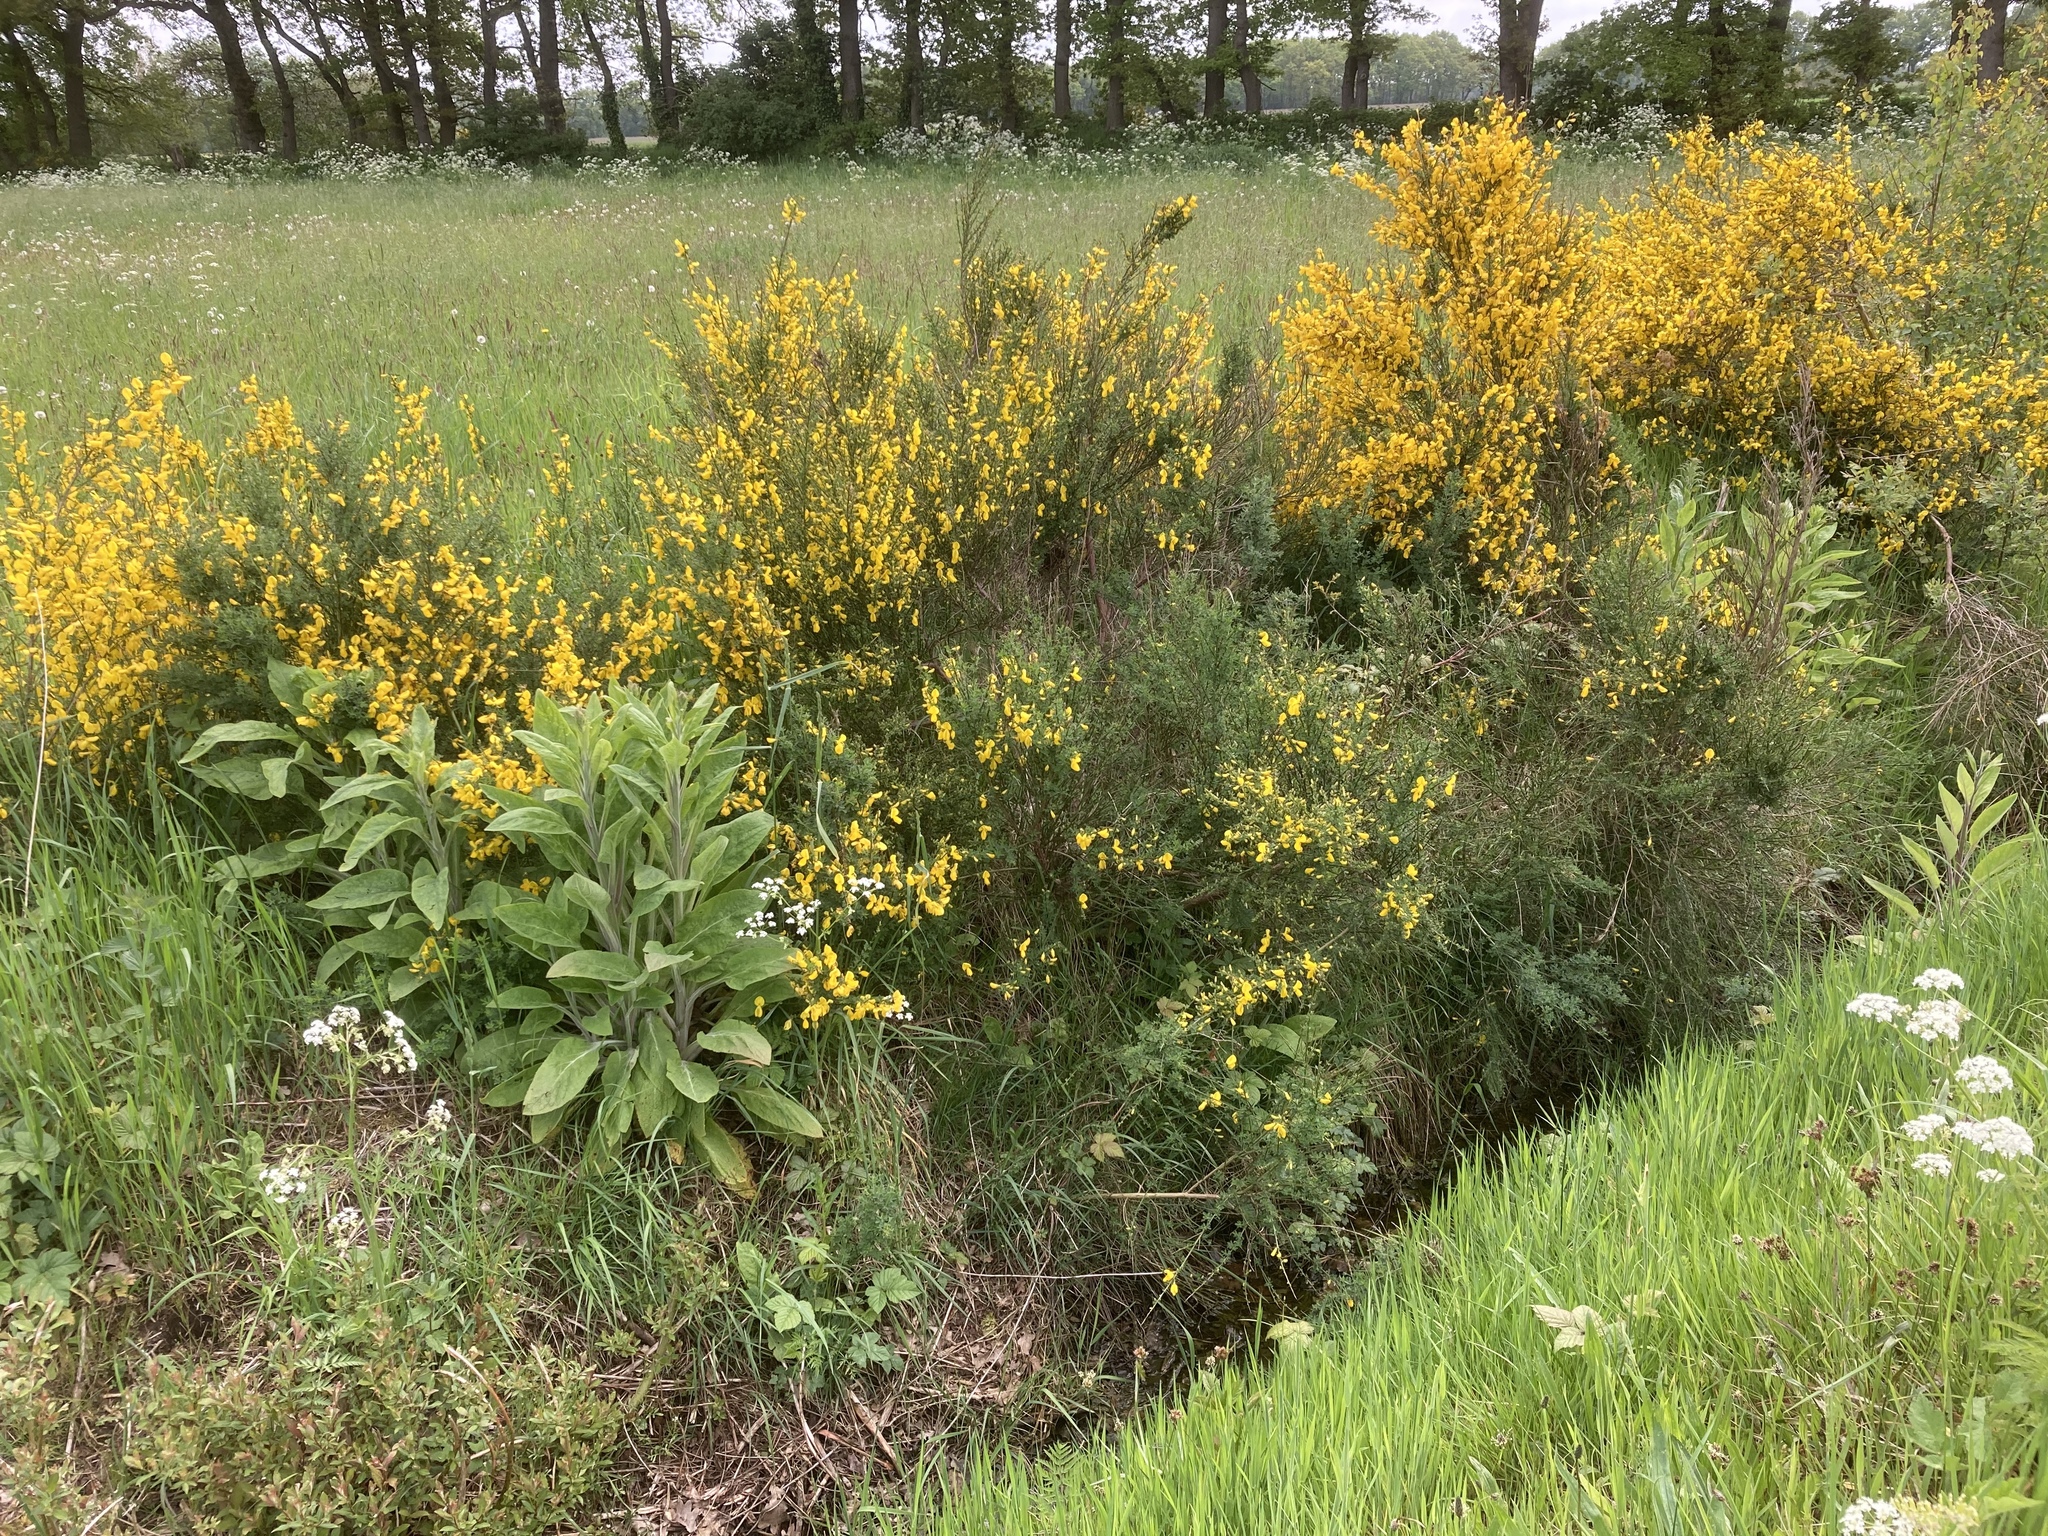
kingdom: Plantae
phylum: Tracheophyta
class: Magnoliopsida
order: Fabales
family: Fabaceae
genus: Cytisus
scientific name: Cytisus scoparius
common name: Scotch broom
